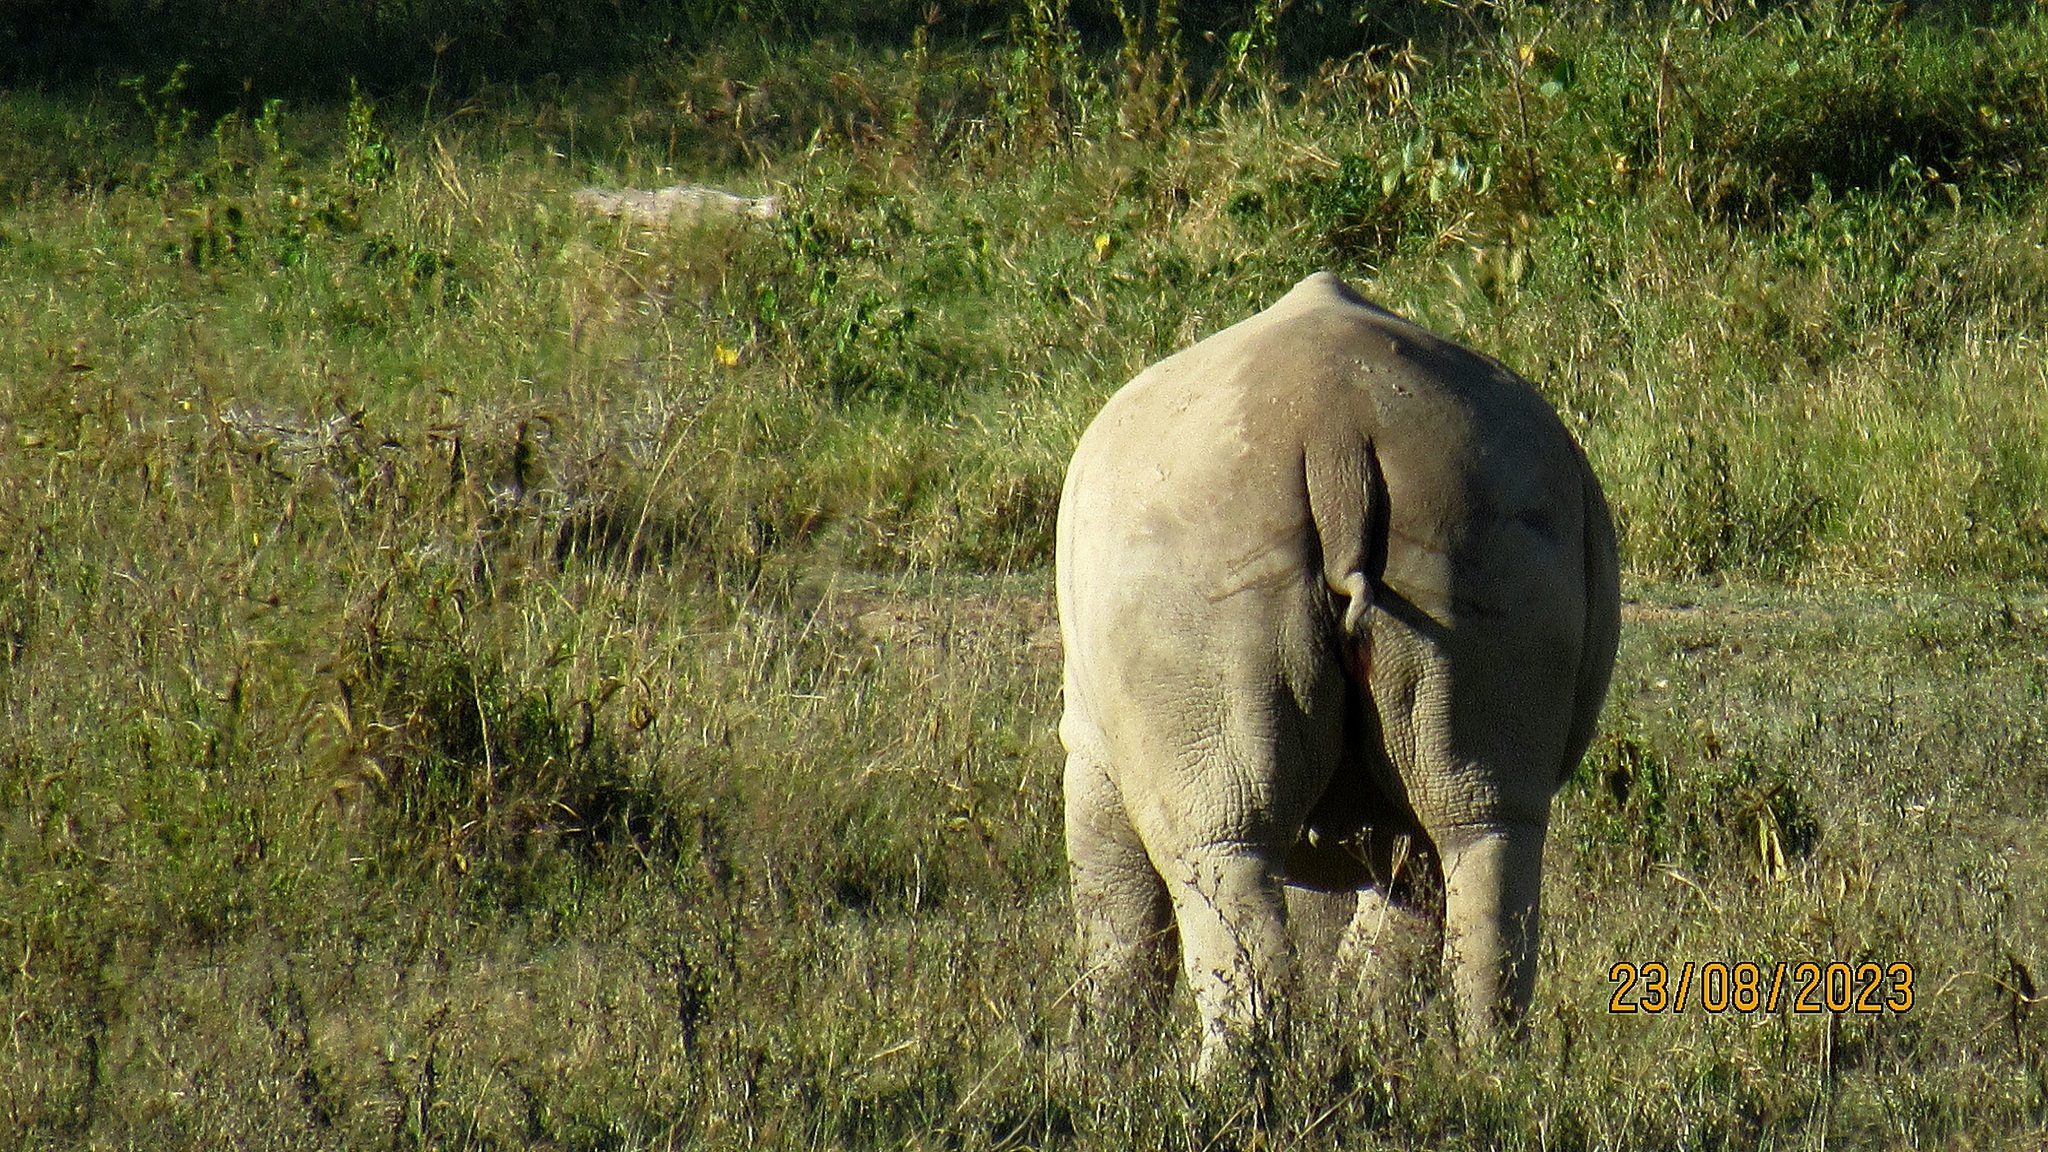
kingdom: Animalia
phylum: Chordata
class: Mammalia
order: Perissodactyla
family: Rhinocerotidae
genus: Ceratotherium
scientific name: Ceratotherium simum
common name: White rhinoceros
